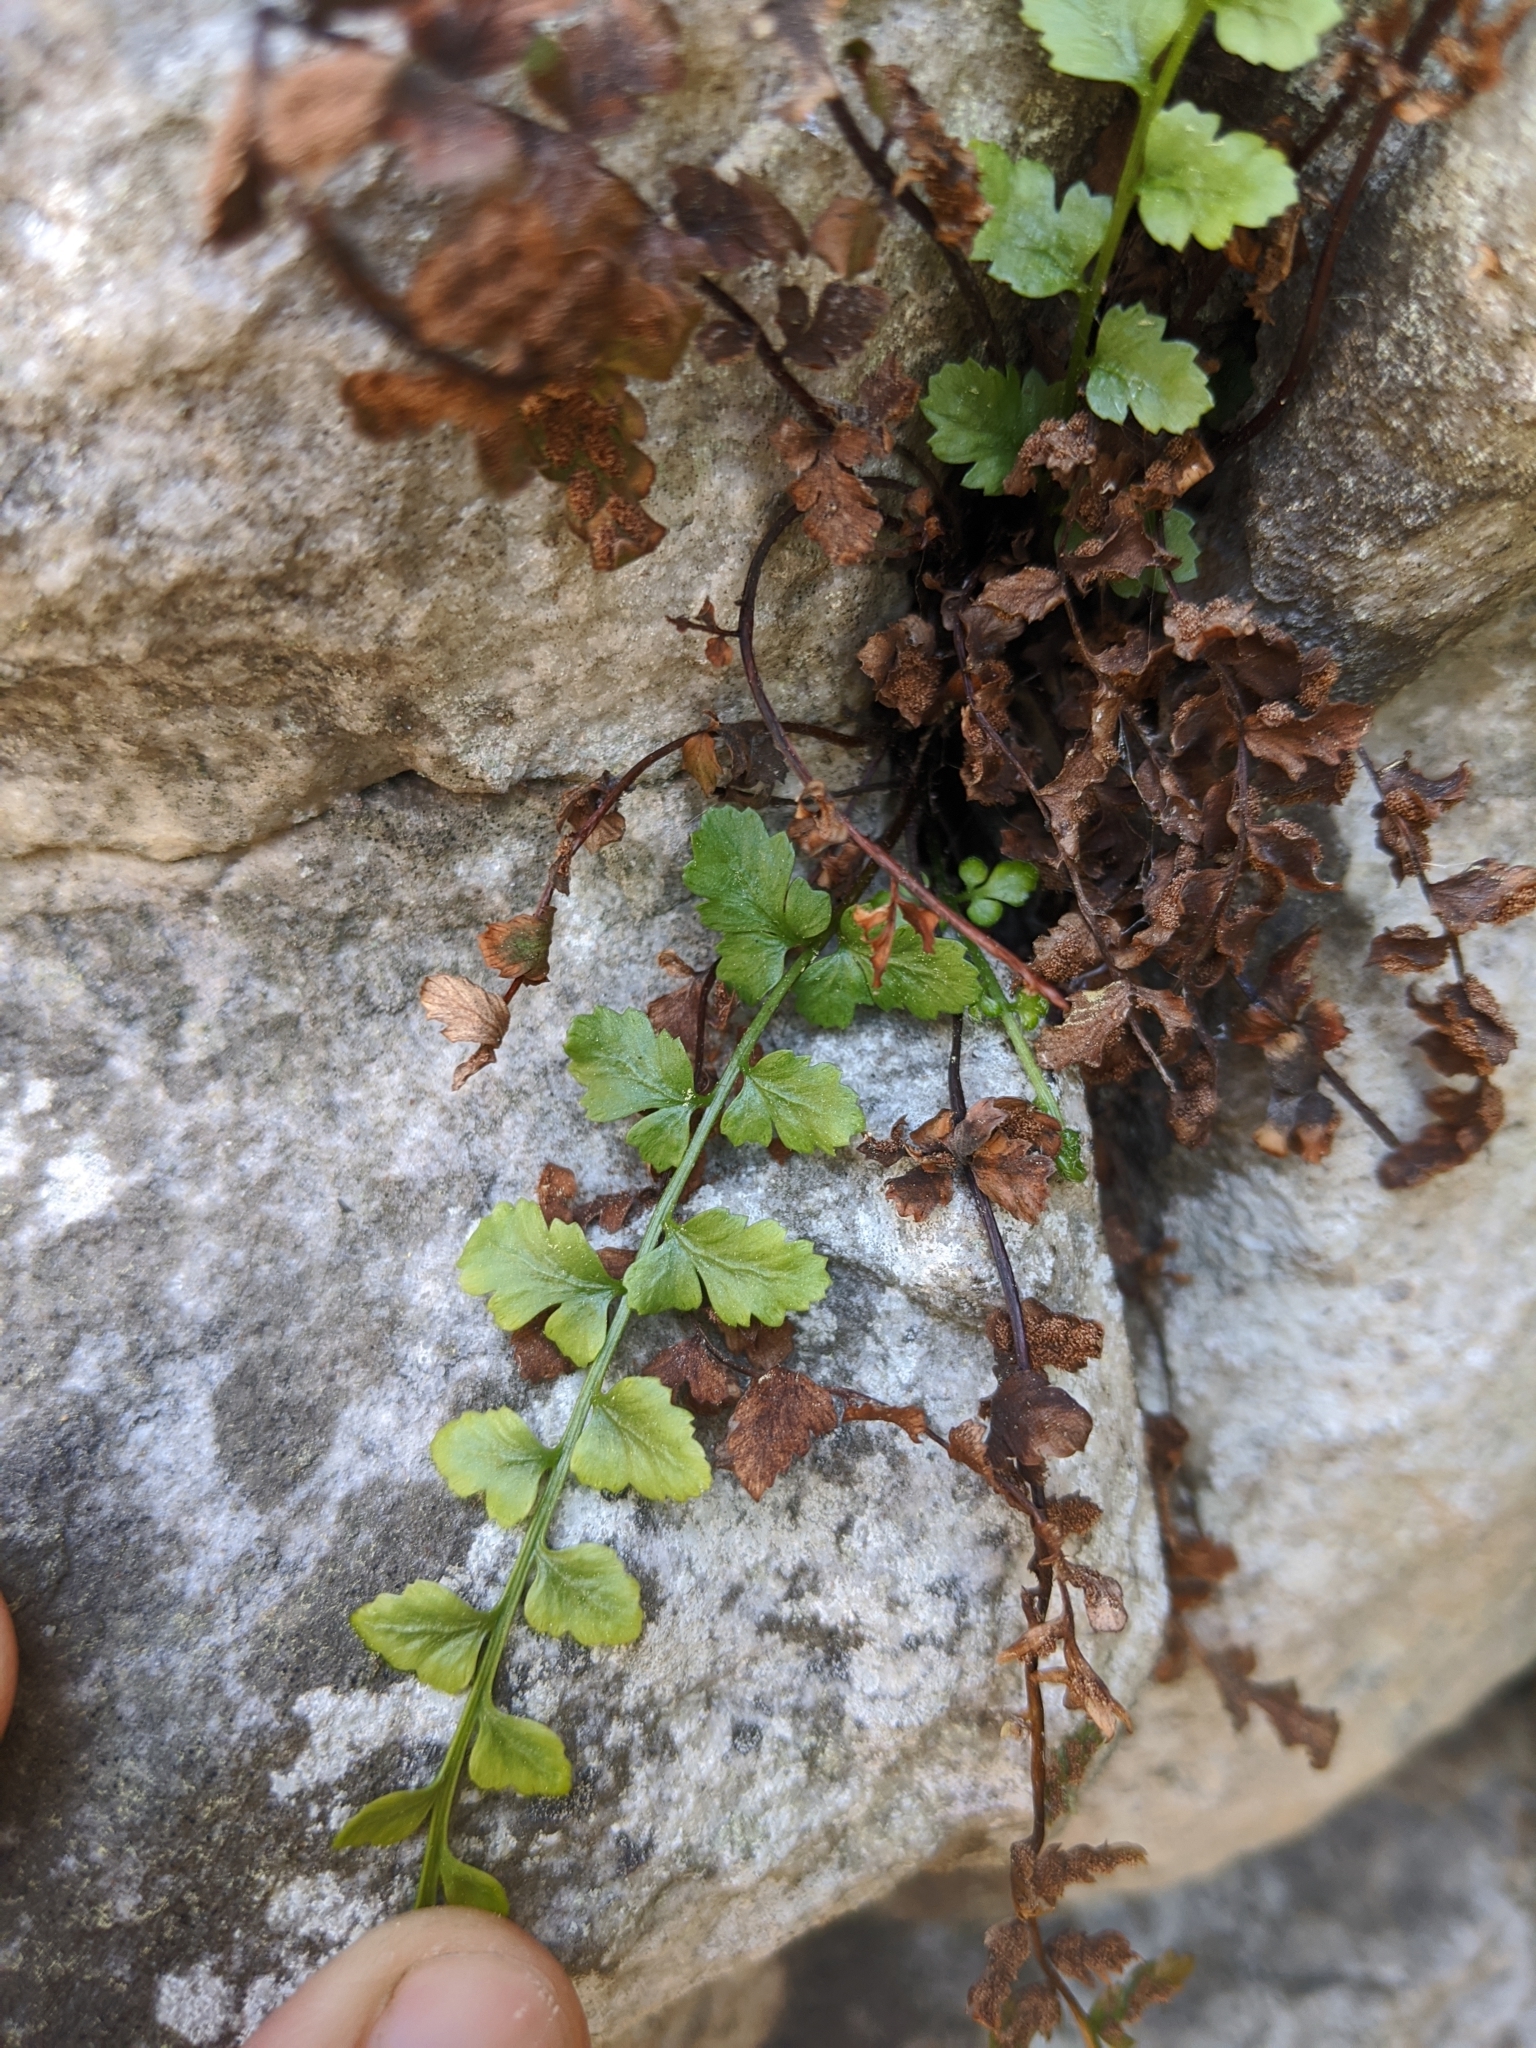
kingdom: Plantae
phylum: Tracheophyta
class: Polypodiopsida
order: Polypodiales
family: Aspleniaceae
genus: Asplenium
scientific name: Asplenium bradleyi
